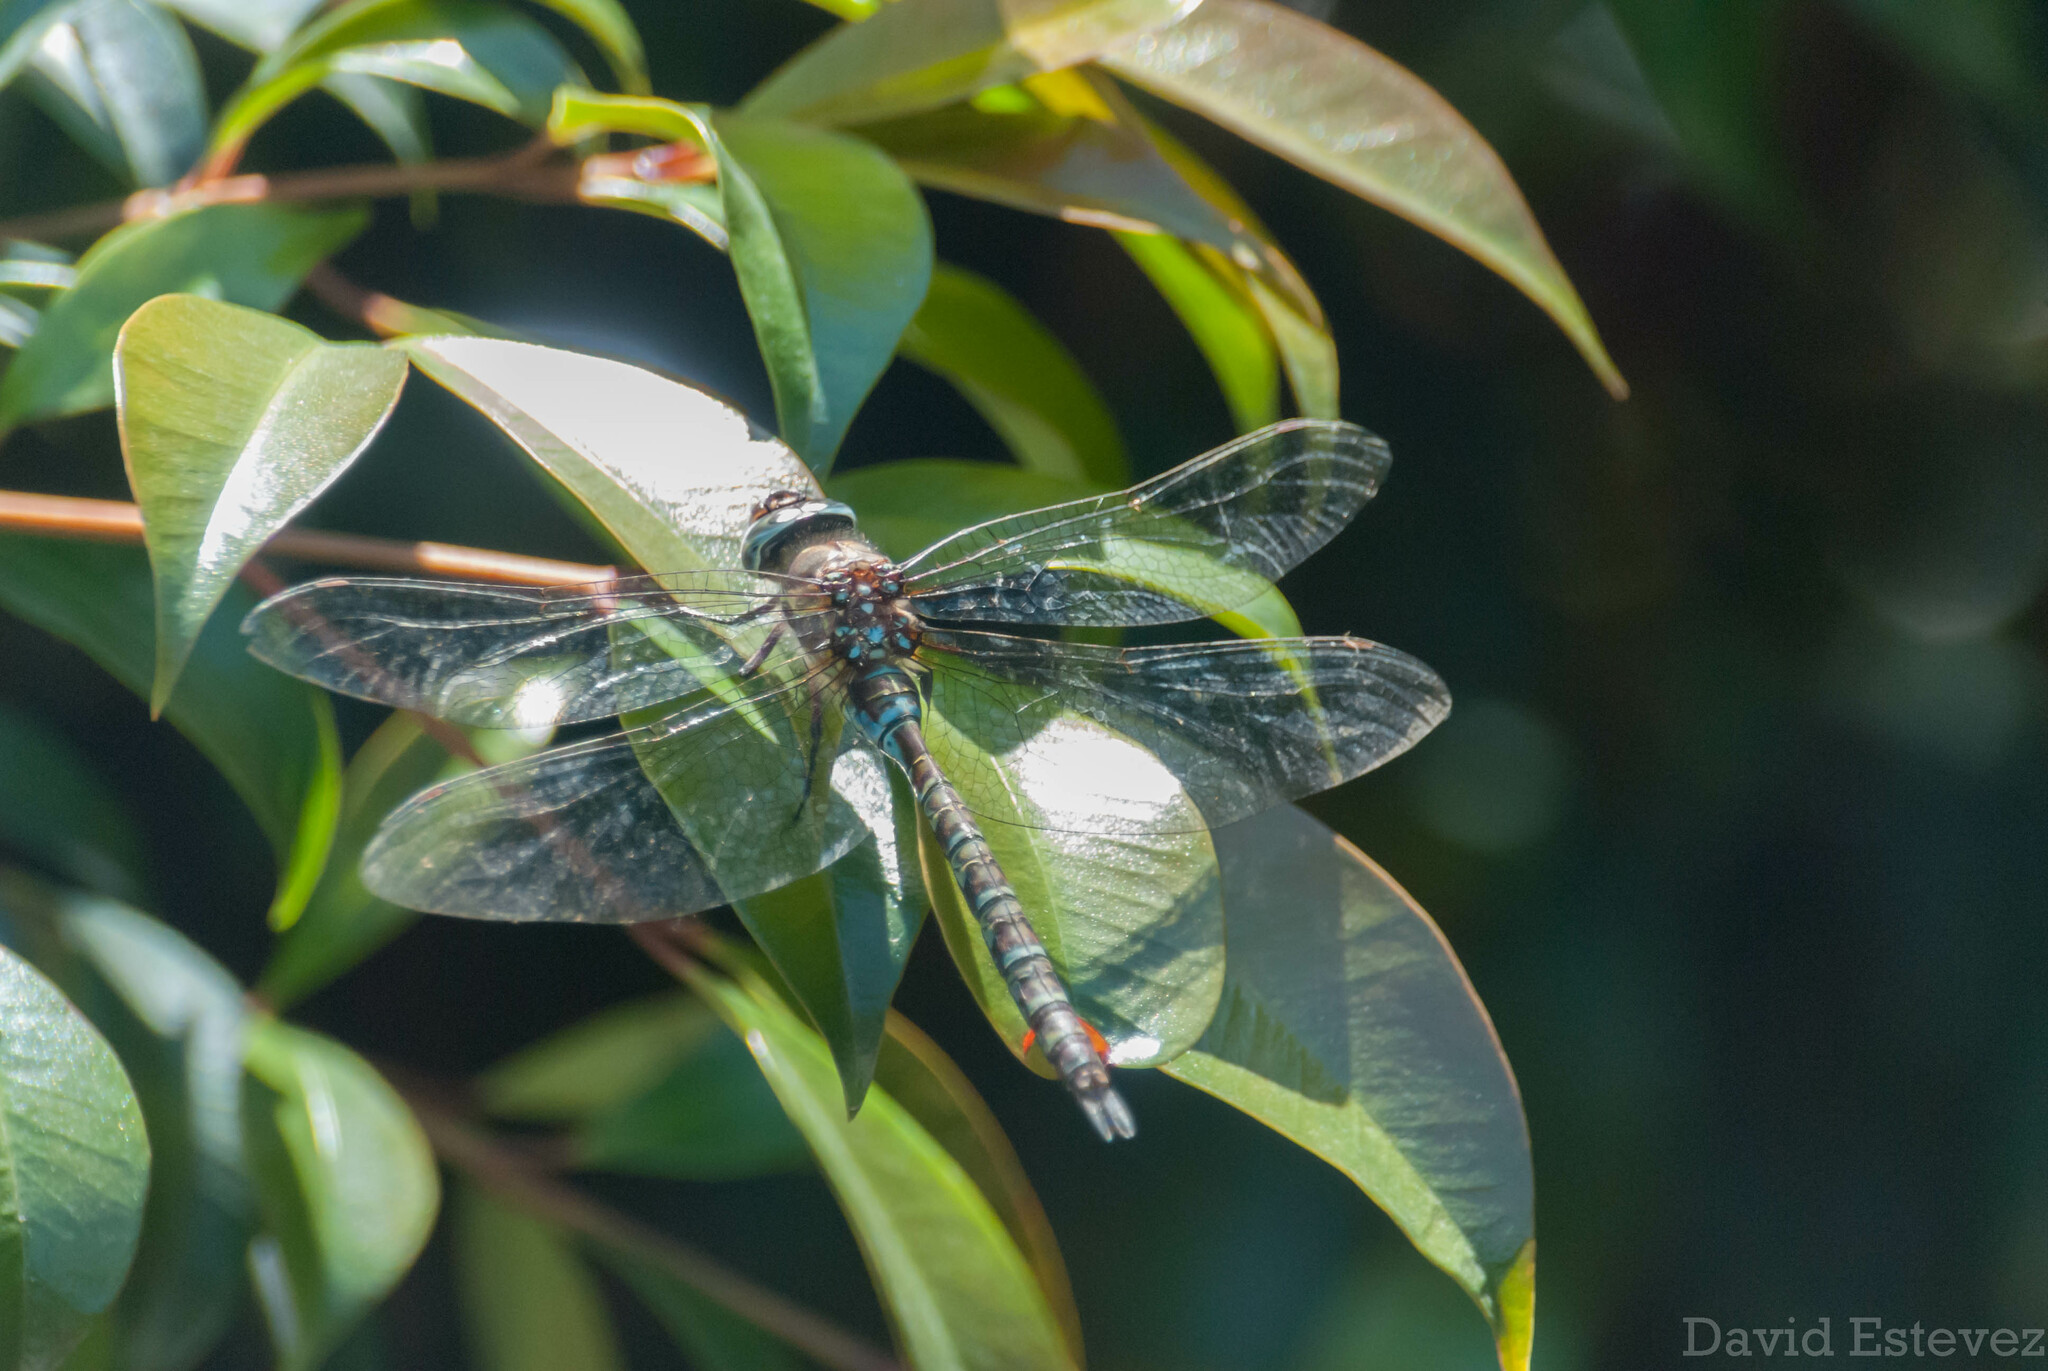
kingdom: Animalia
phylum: Arthropoda
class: Insecta
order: Odonata
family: Aeshnidae
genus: Rhionaeschna
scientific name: Rhionaeschna marchali
